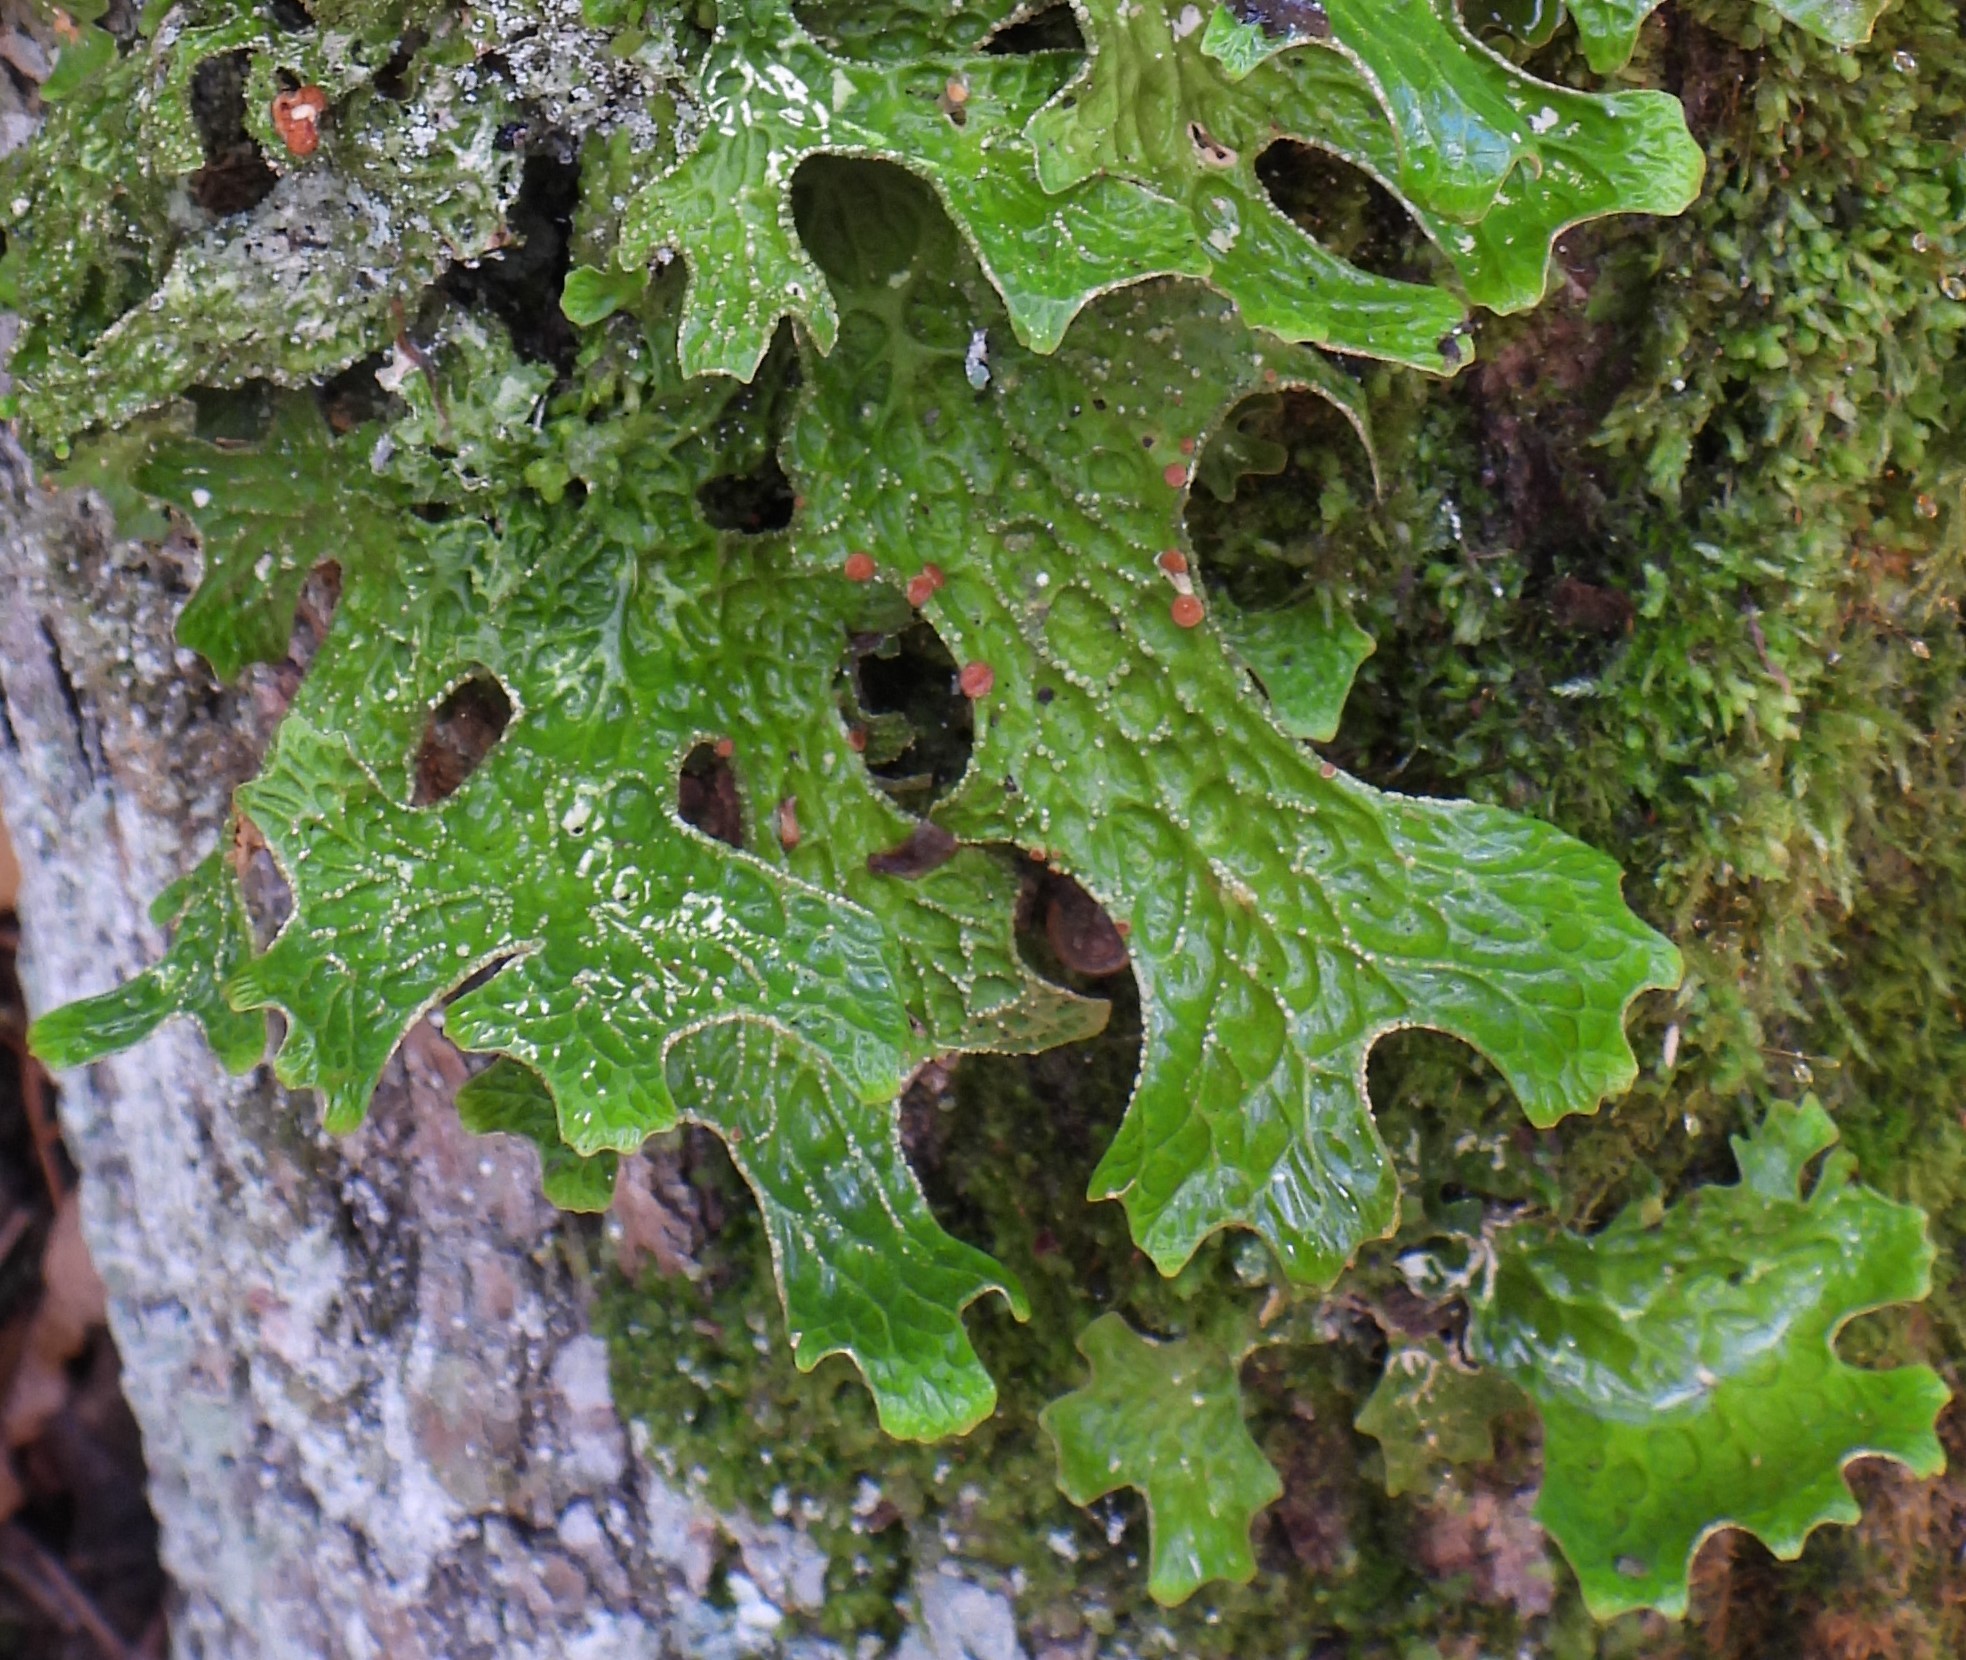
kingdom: Fungi
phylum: Ascomycota
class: Lecanoromycetes
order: Peltigerales
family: Lobariaceae
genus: Lobaria
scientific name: Lobaria pulmonaria
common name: Lungwort
